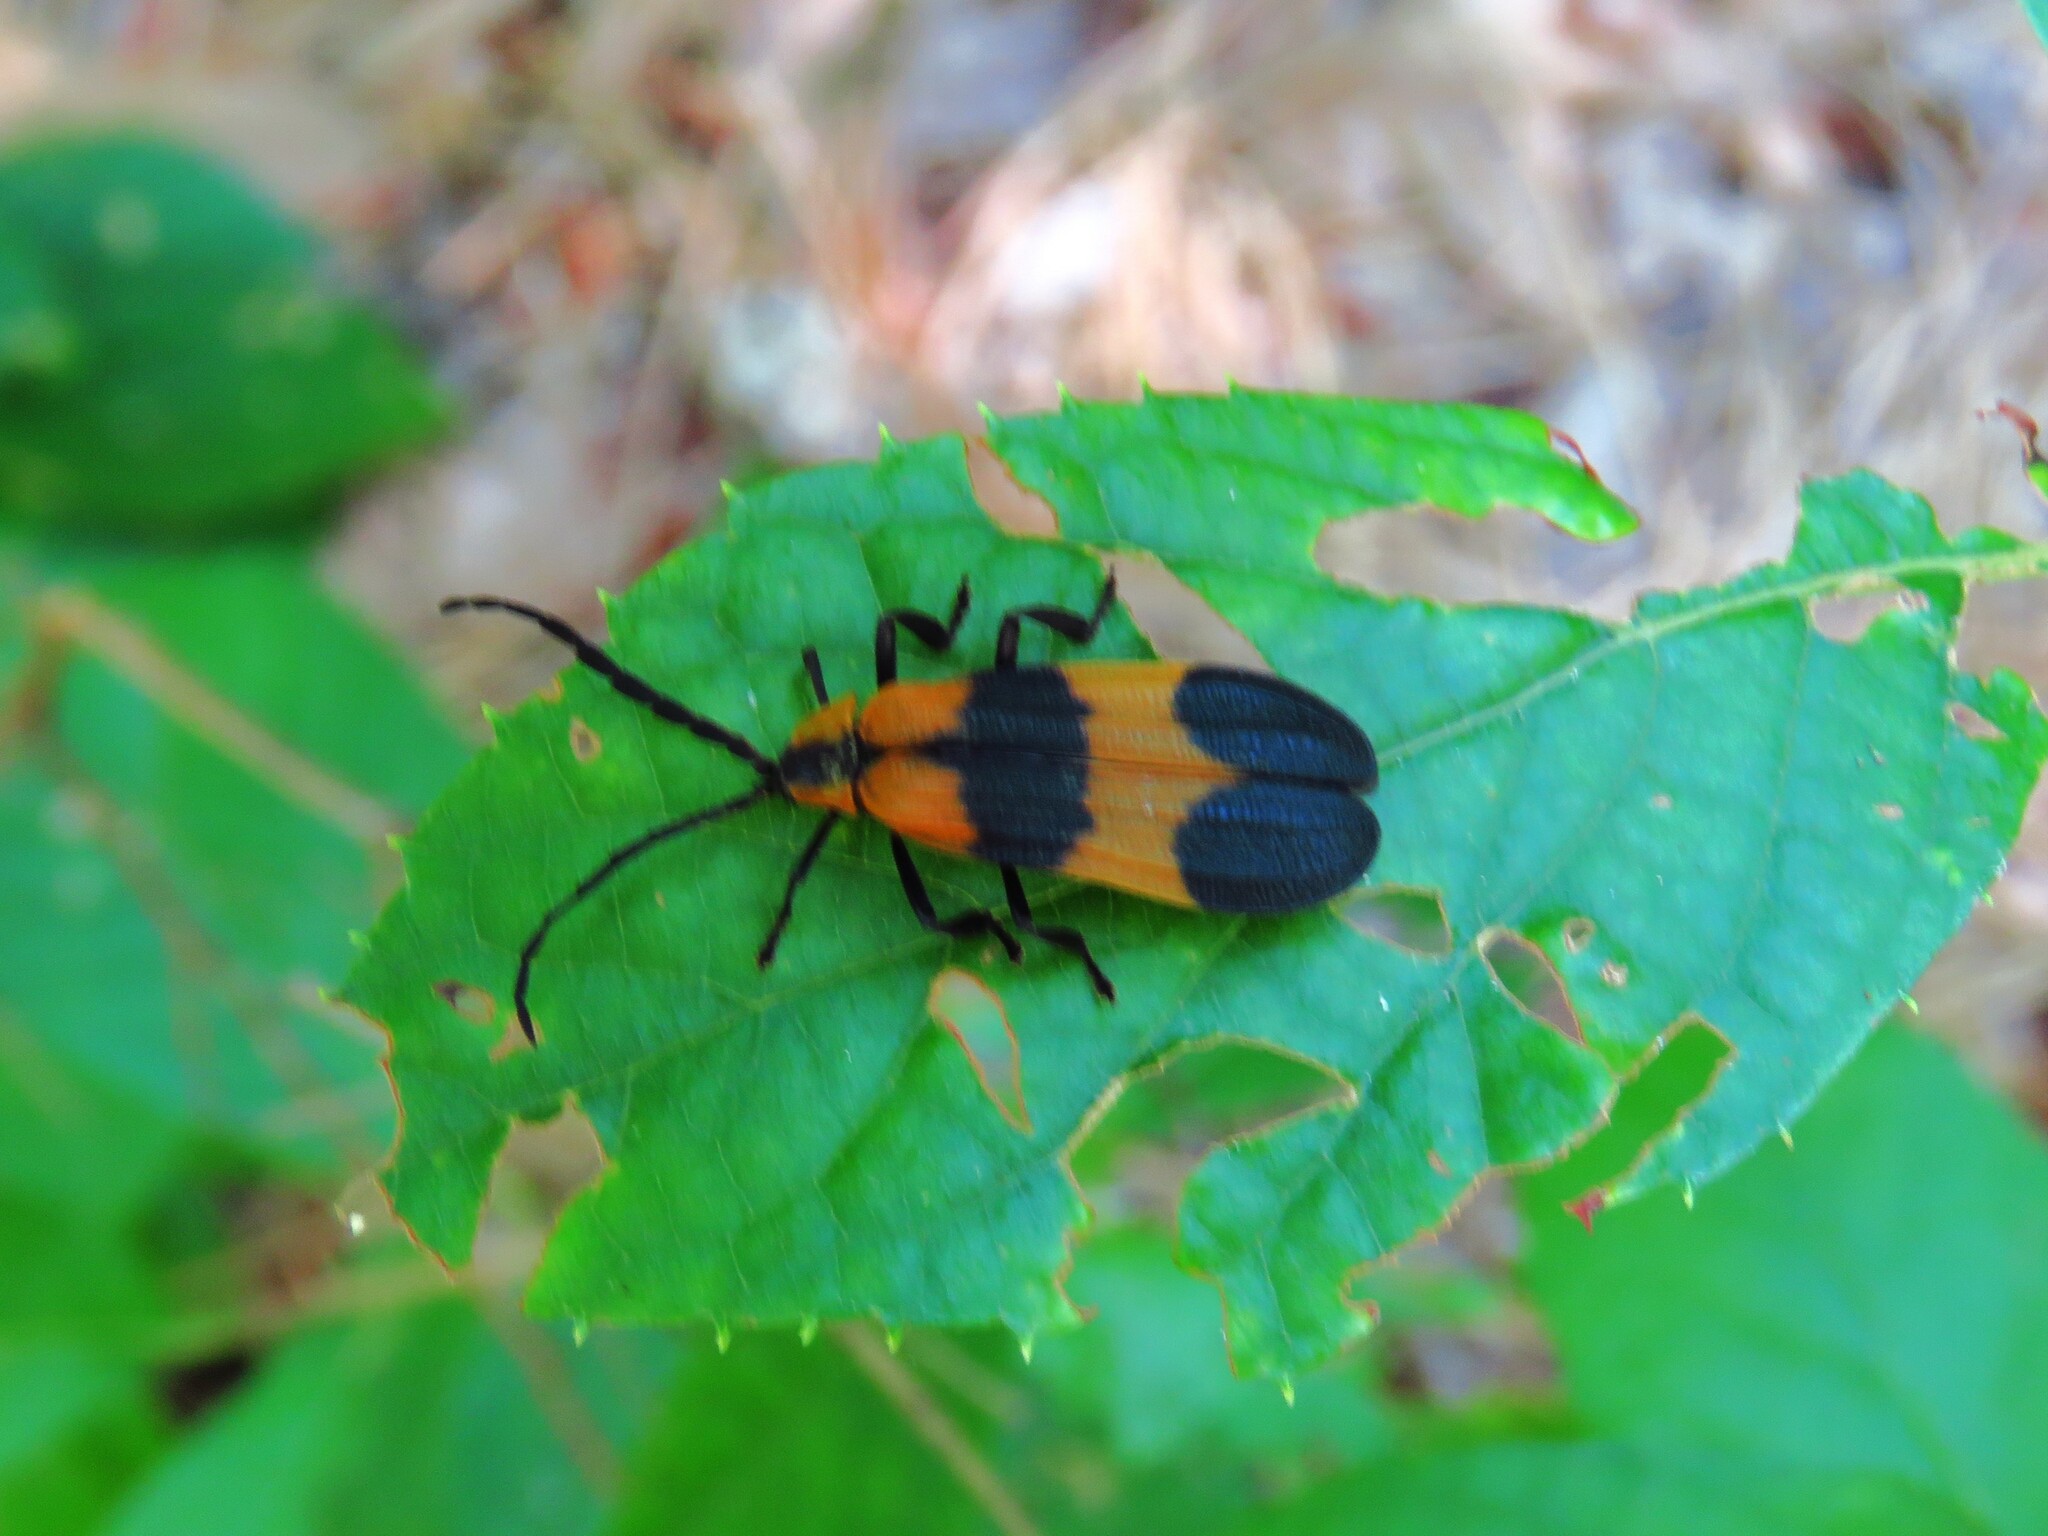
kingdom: Animalia
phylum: Arthropoda
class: Insecta
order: Coleoptera
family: Lycidae
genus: Calopteron
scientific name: Calopteron reticulatum
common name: Banded net-winged beetle
